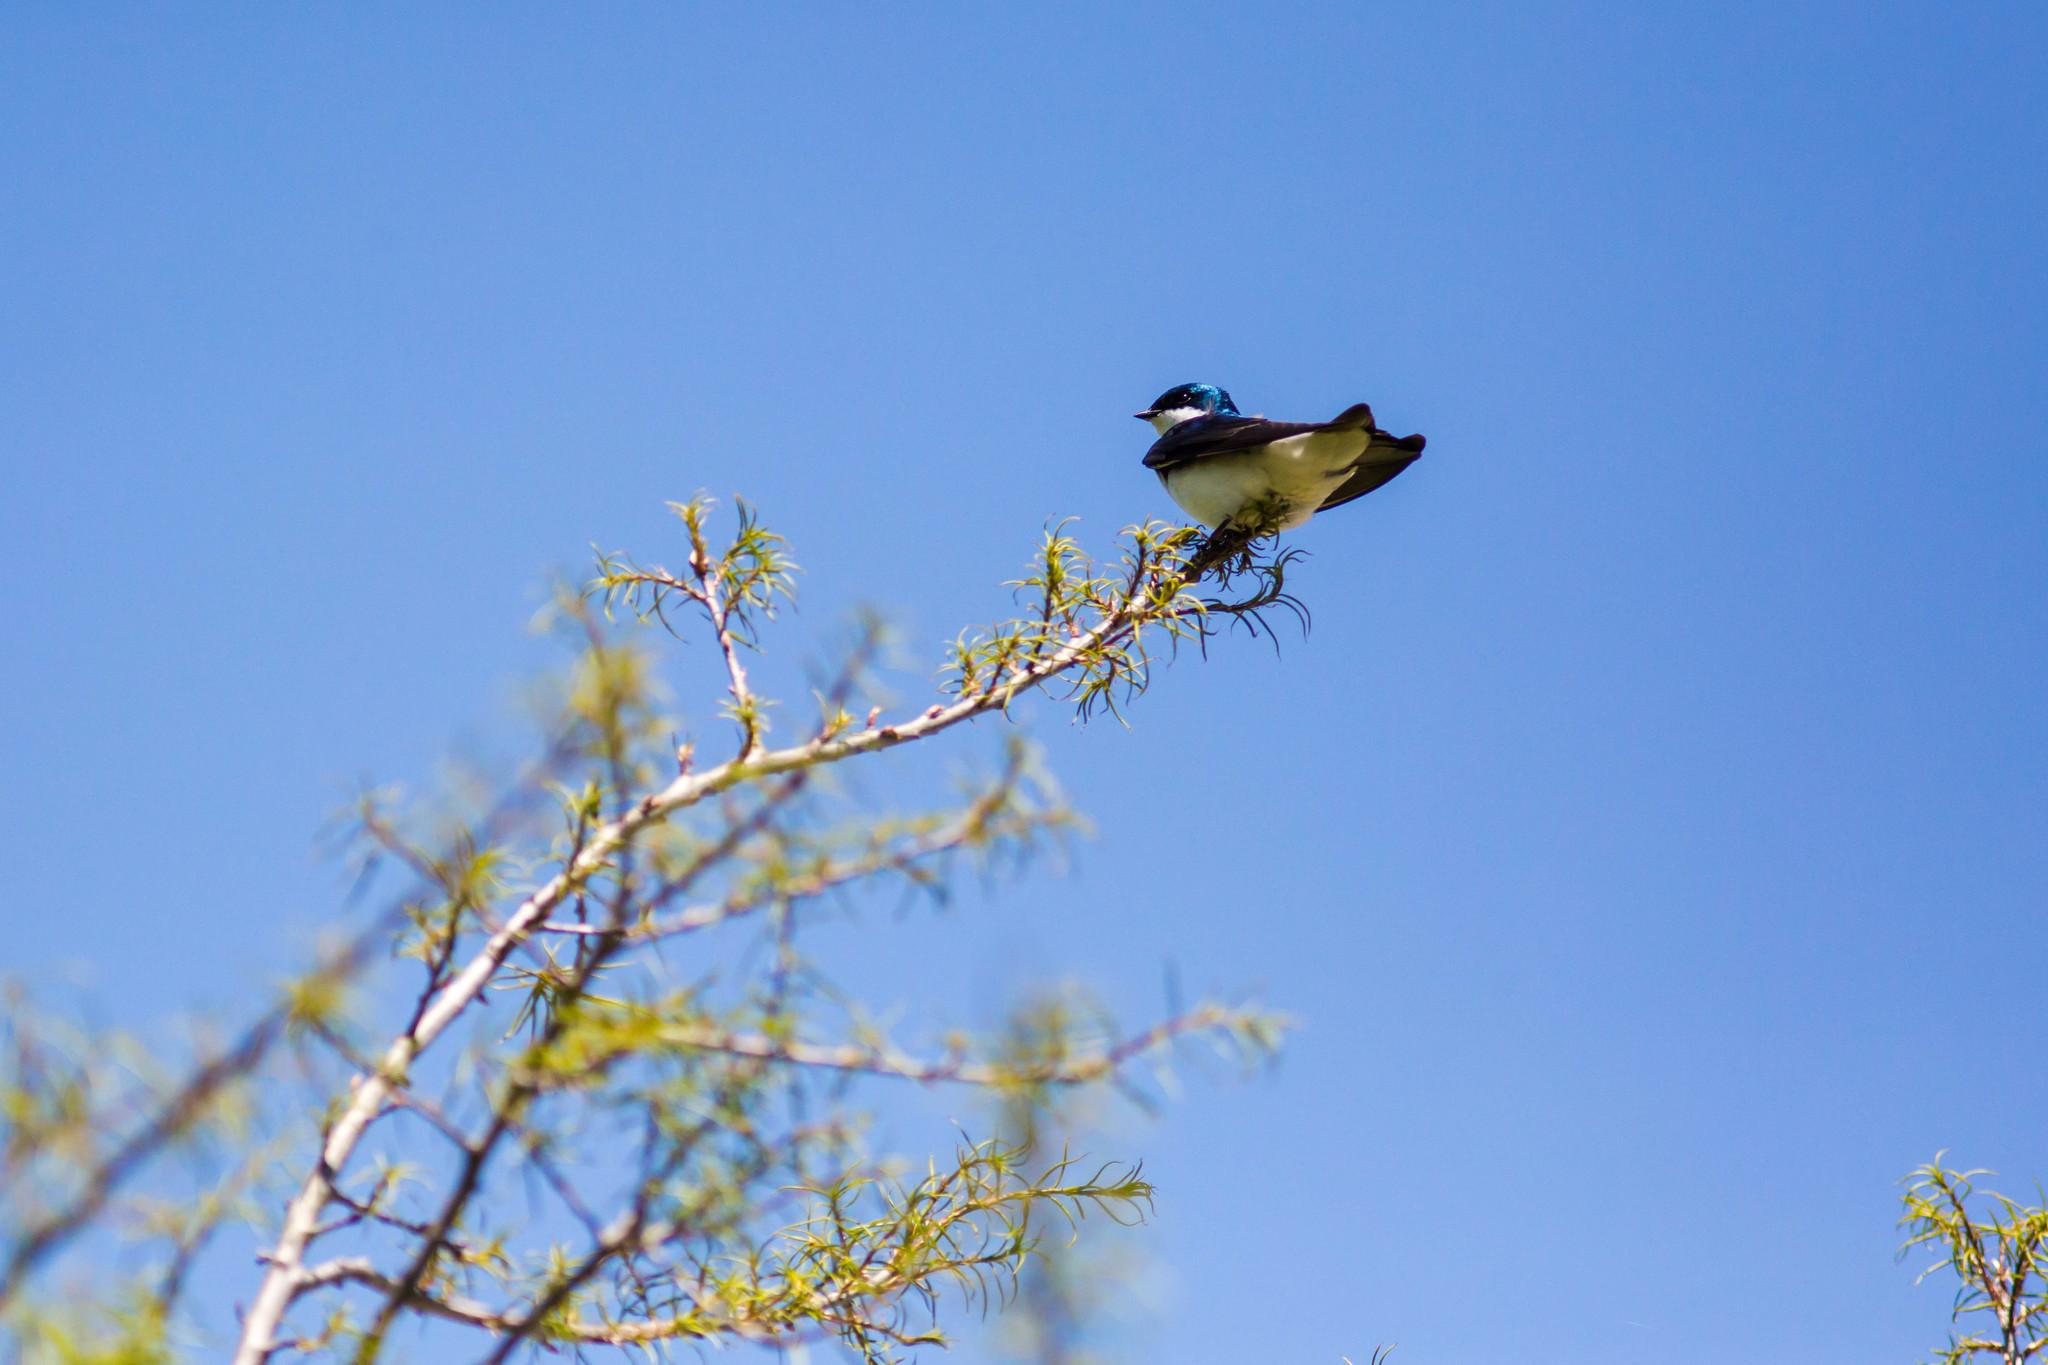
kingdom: Animalia
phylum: Chordata
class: Aves
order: Passeriformes
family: Hirundinidae
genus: Tachycineta
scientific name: Tachycineta bicolor
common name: Tree swallow
